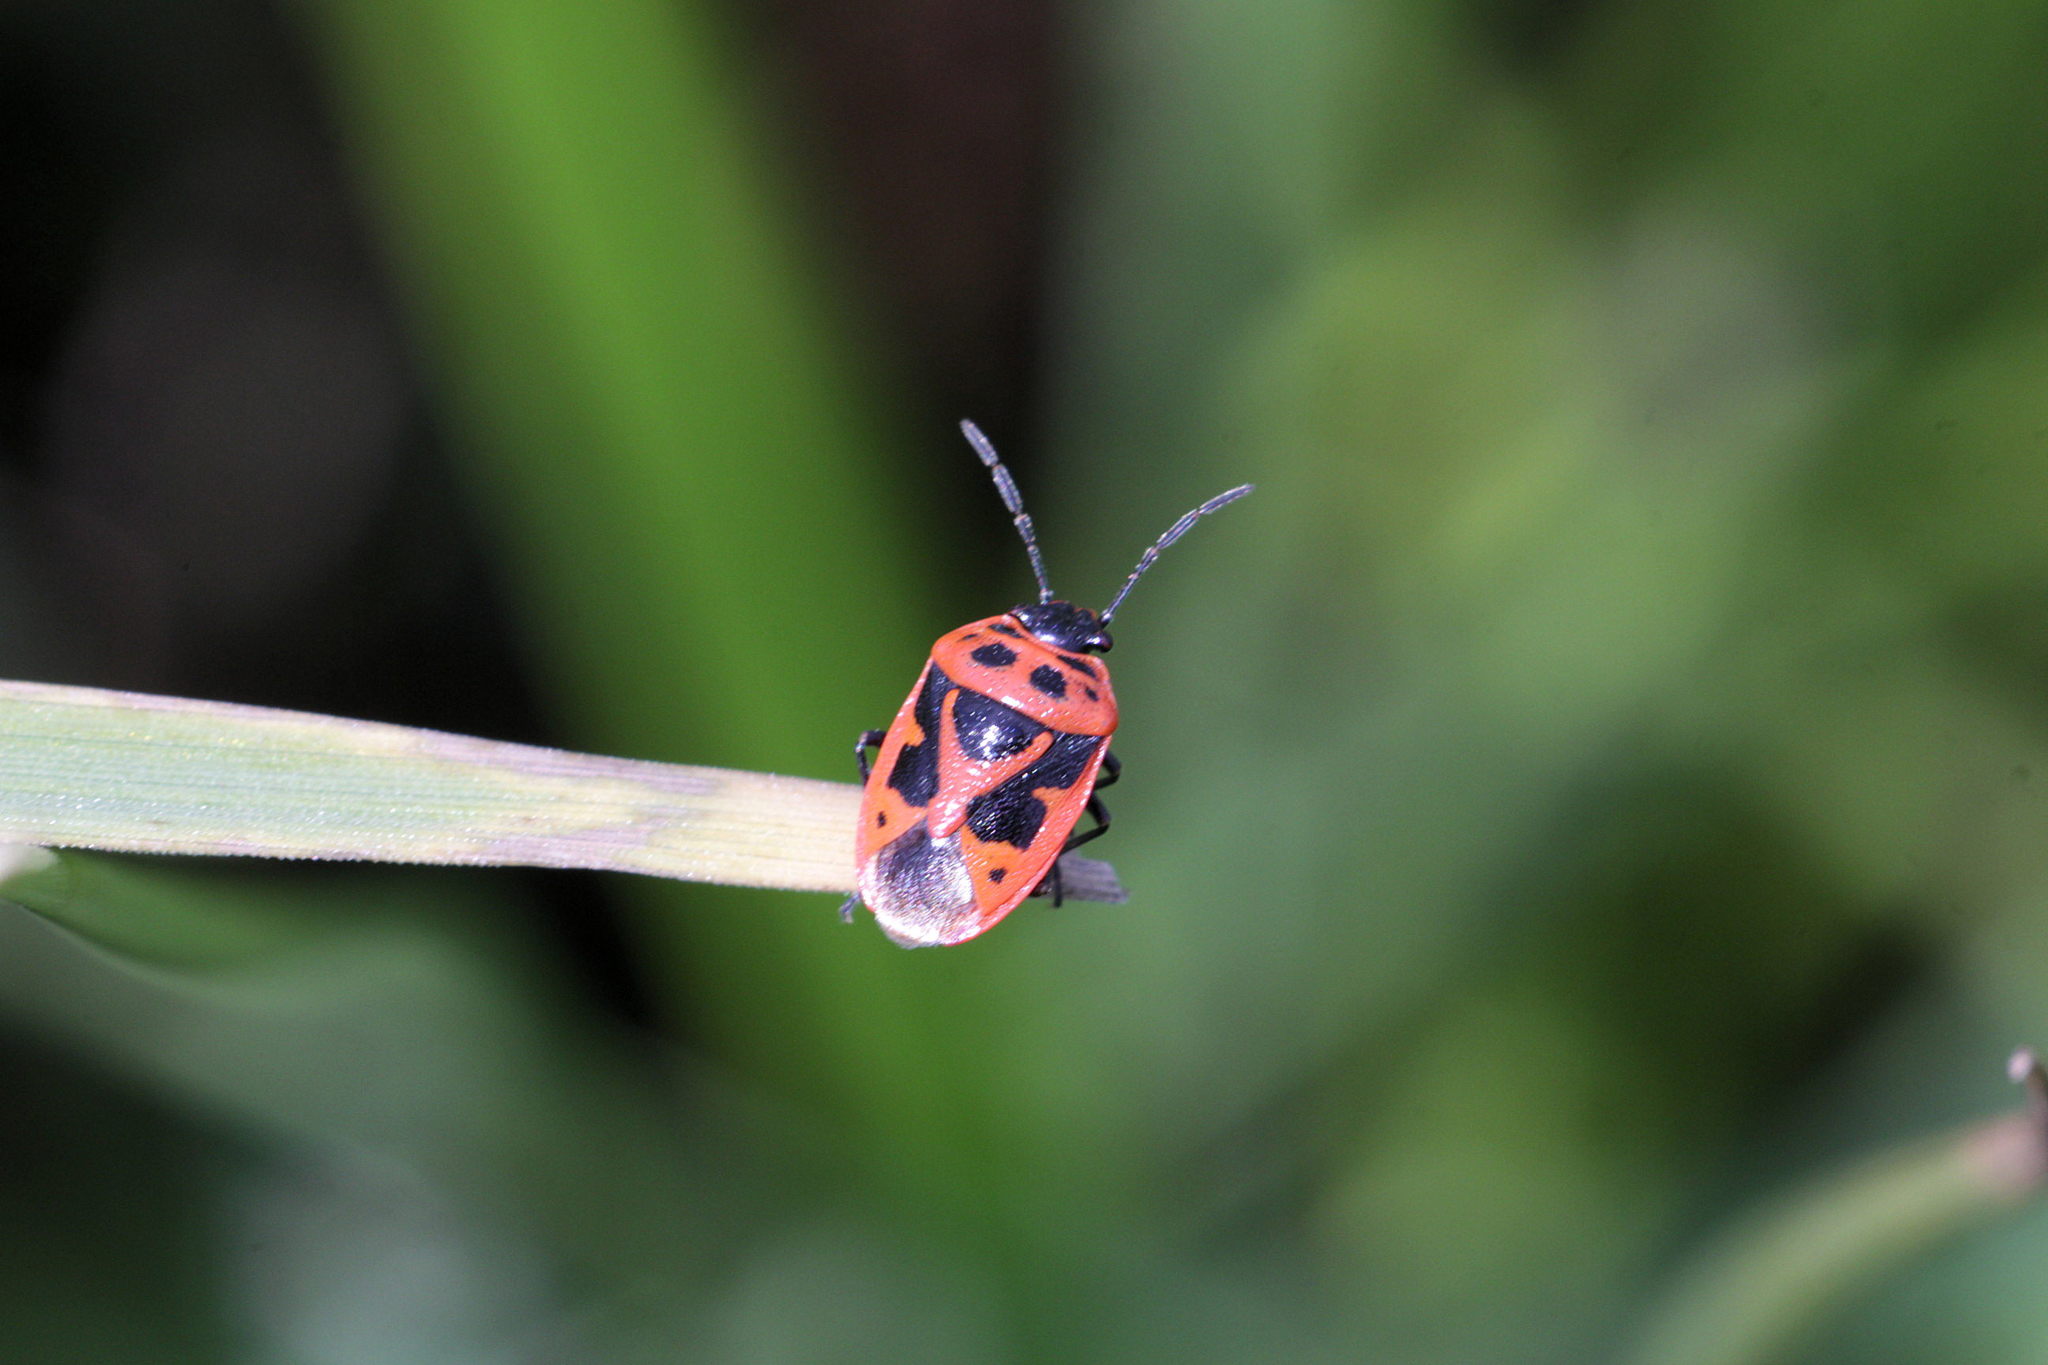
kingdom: Animalia
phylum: Arthropoda
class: Insecta
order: Hemiptera
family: Pentatomidae
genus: Eurydema
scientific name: Eurydema dominulus
